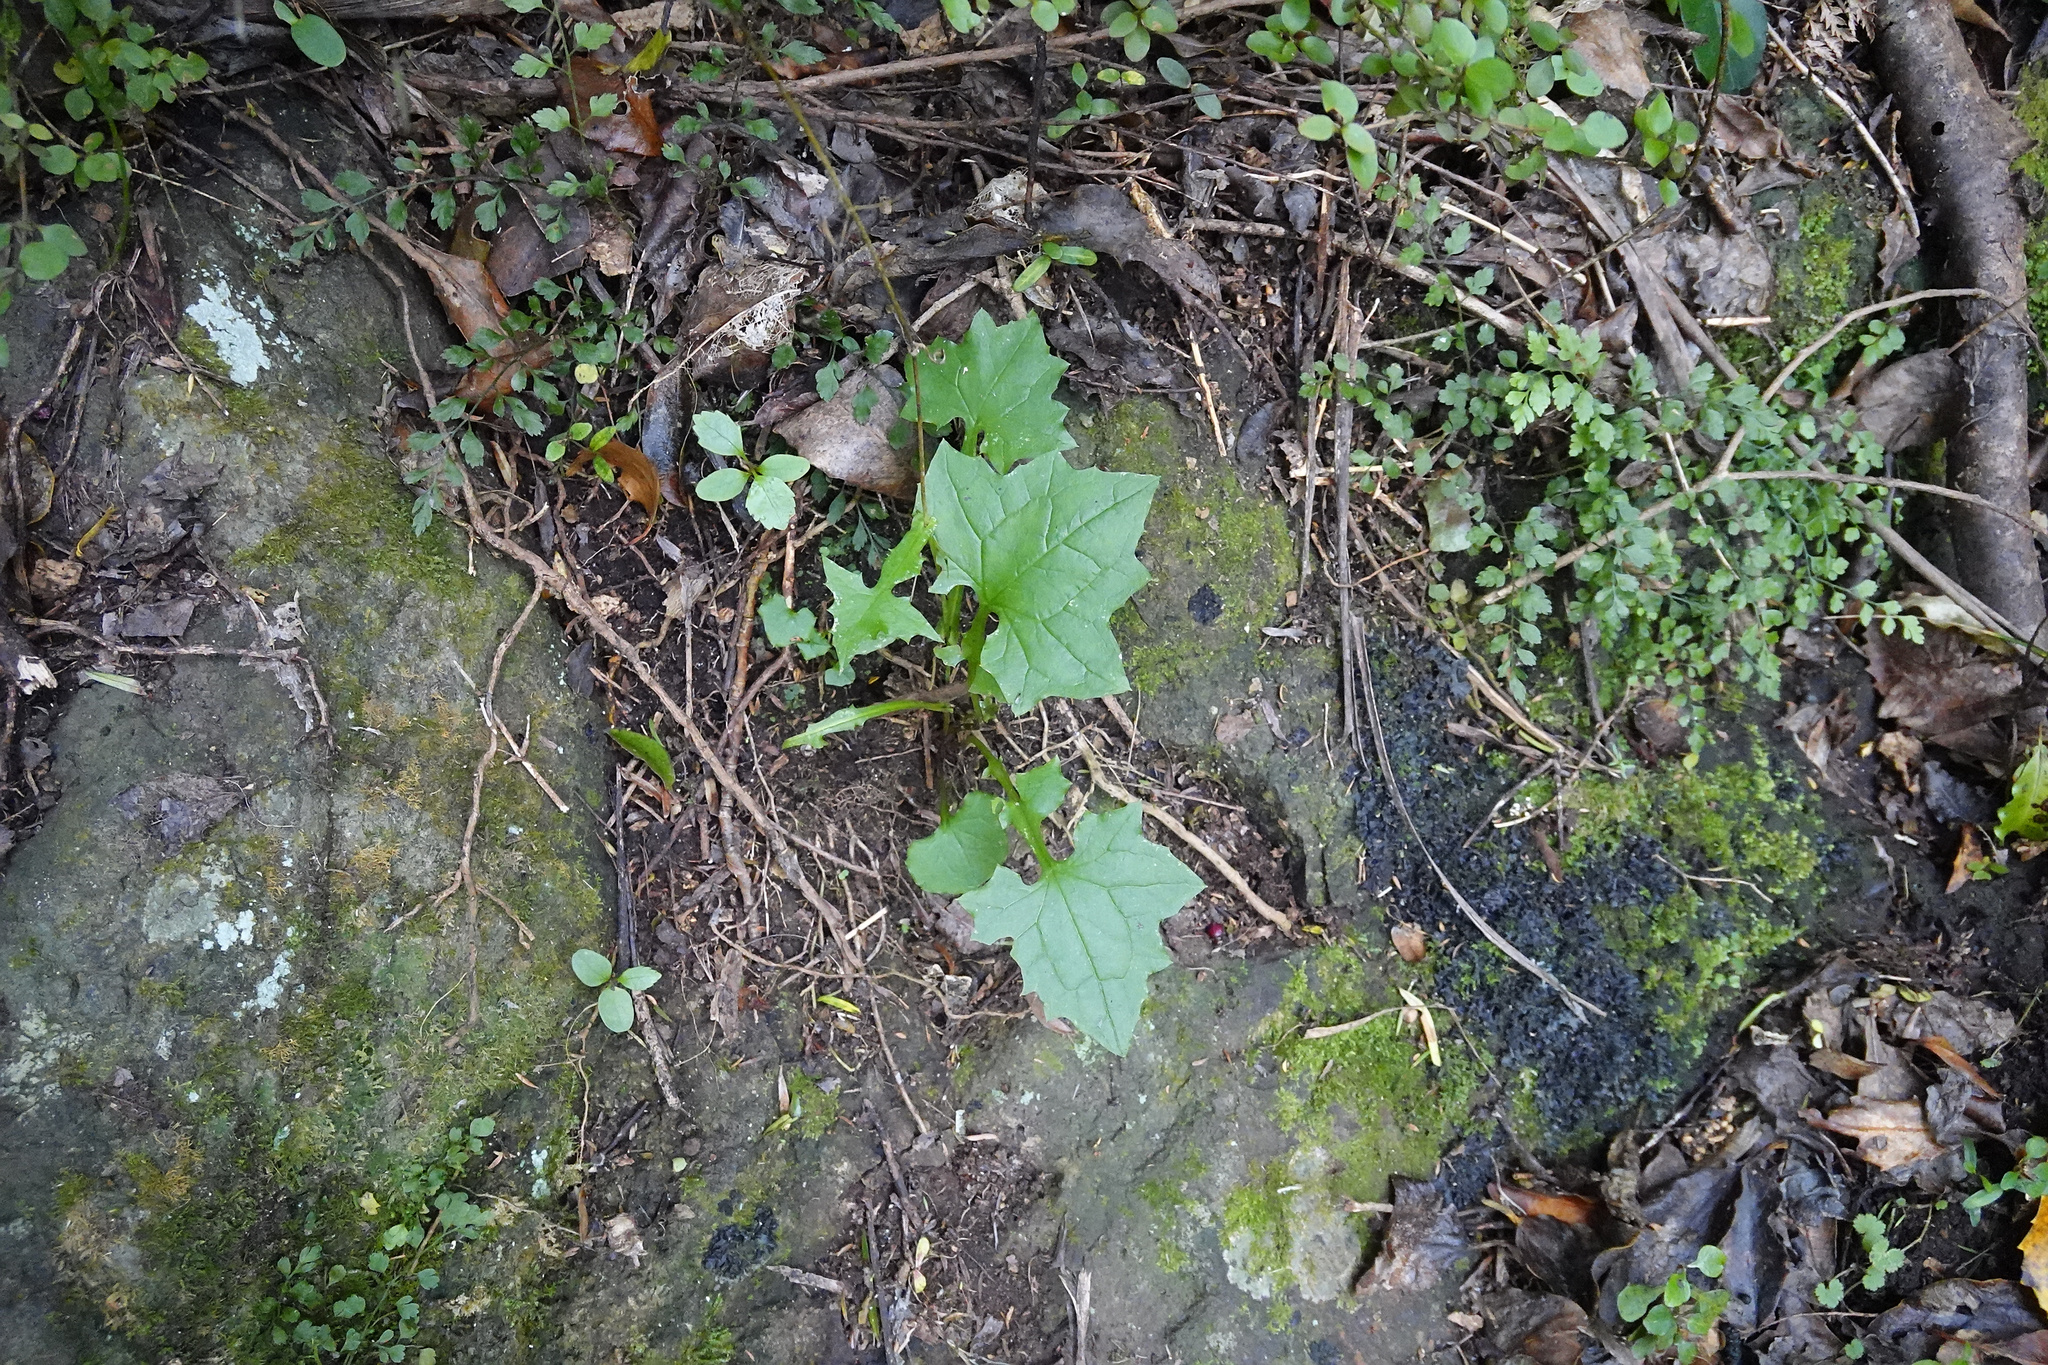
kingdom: Plantae
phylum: Tracheophyta
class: Magnoliopsida
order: Asterales
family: Asteraceae
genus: Mycelis
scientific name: Mycelis muralis
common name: Wall lettuce
